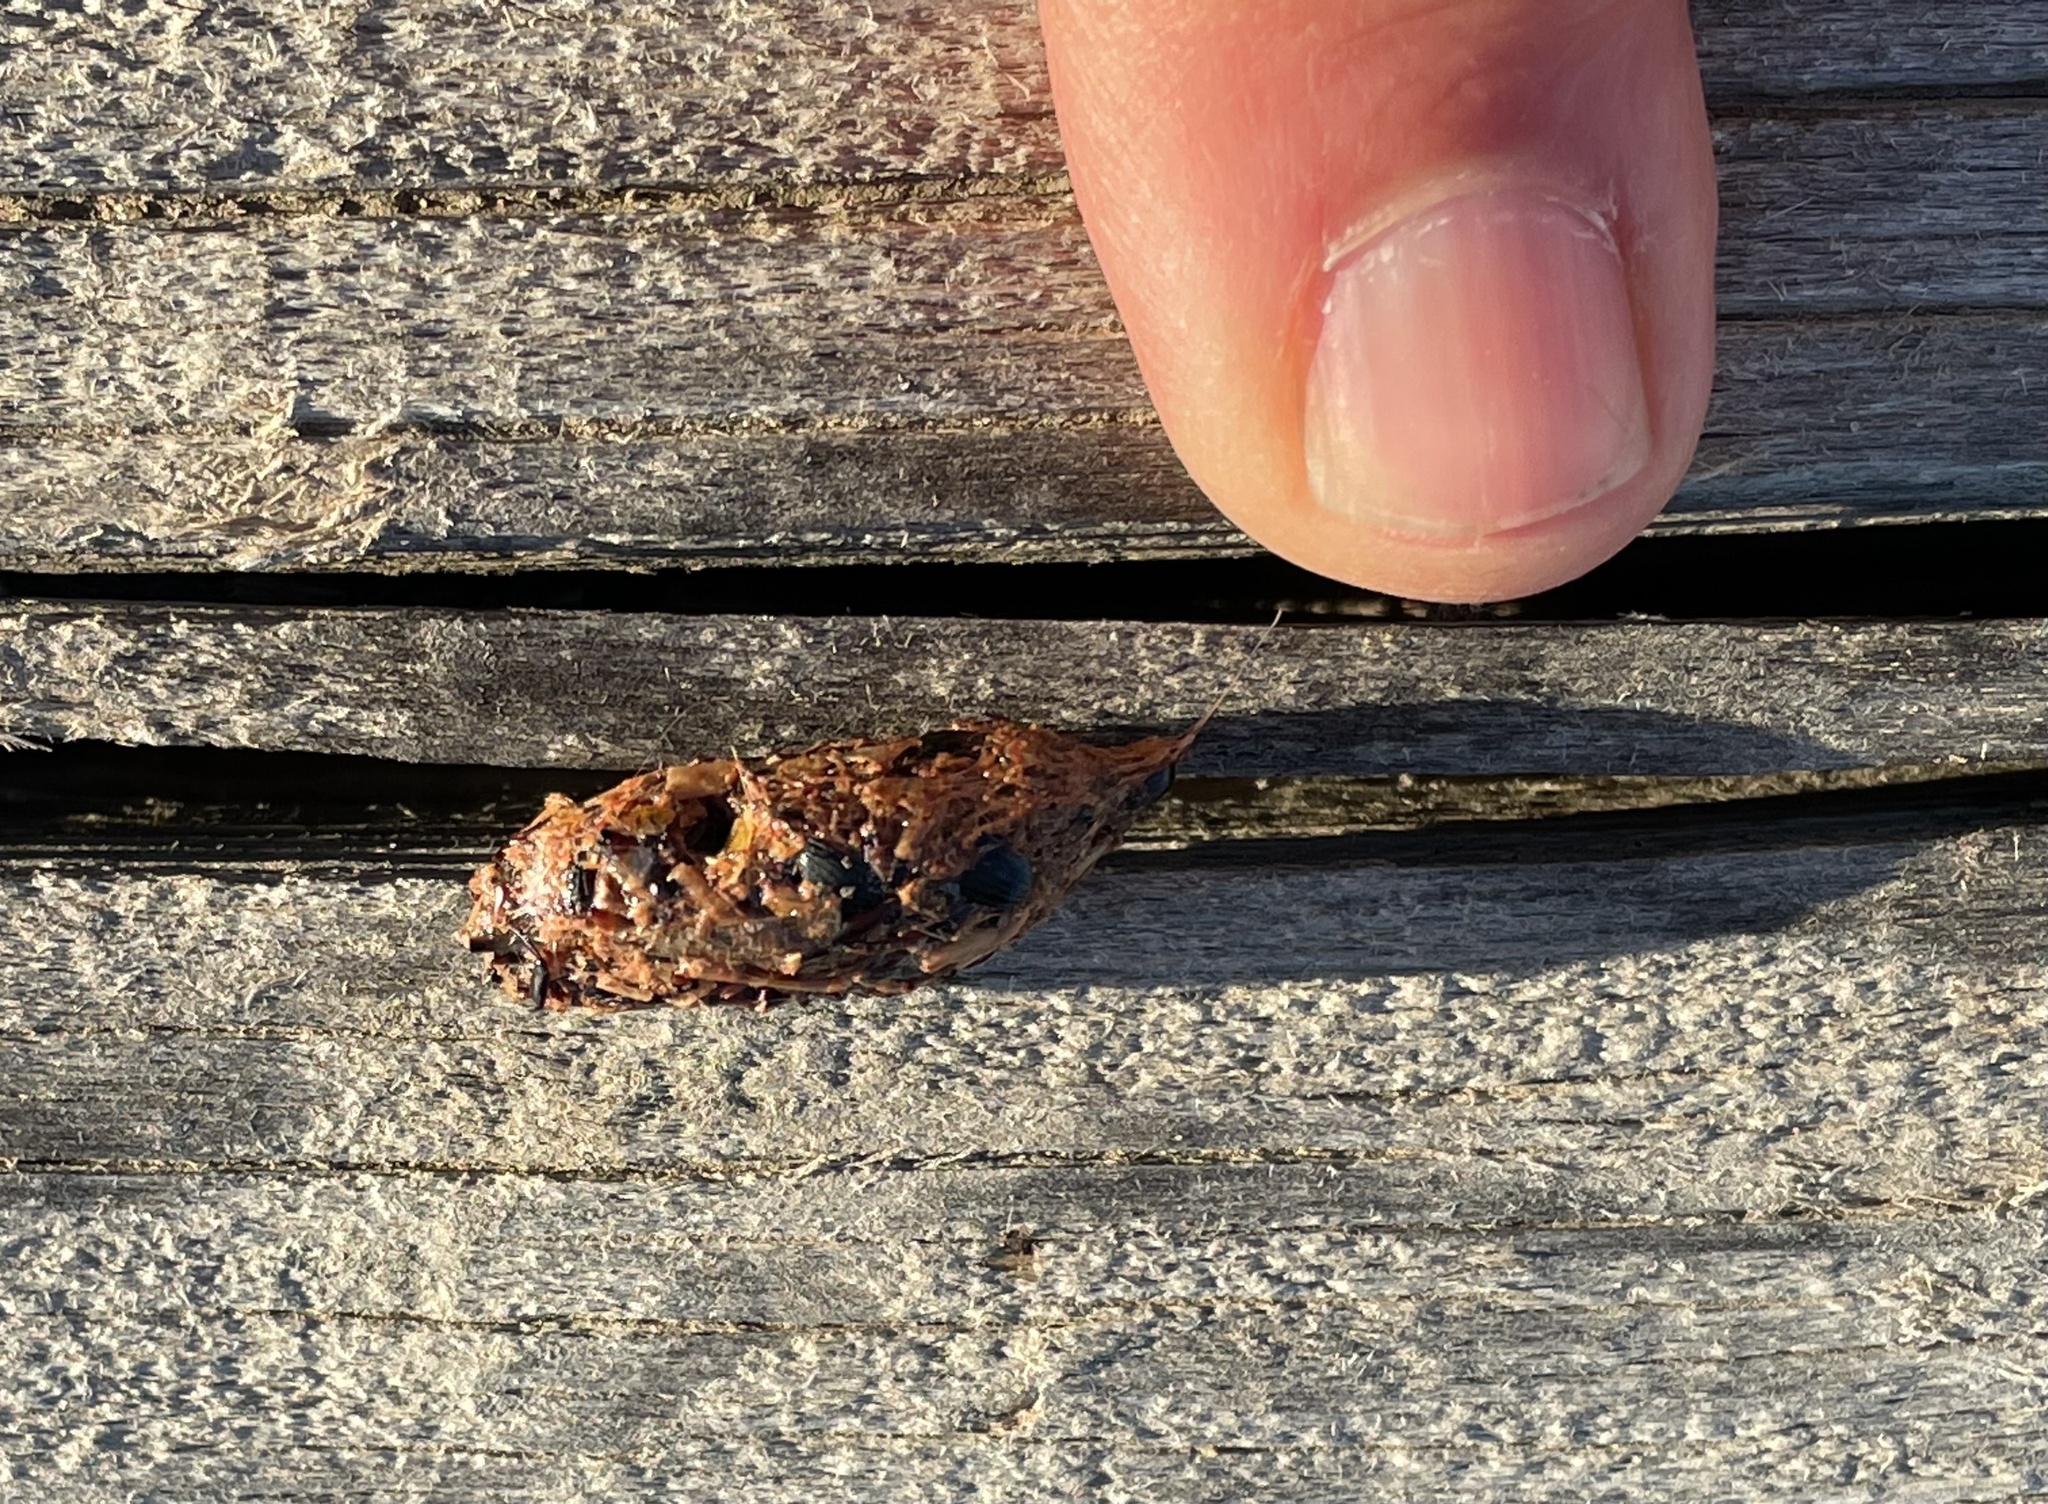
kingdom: Animalia
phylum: Chordata
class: Aves
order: Passeriformes
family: Laniidae
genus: Lanius
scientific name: Lanius ludovicianus
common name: Loggerhead shrike
